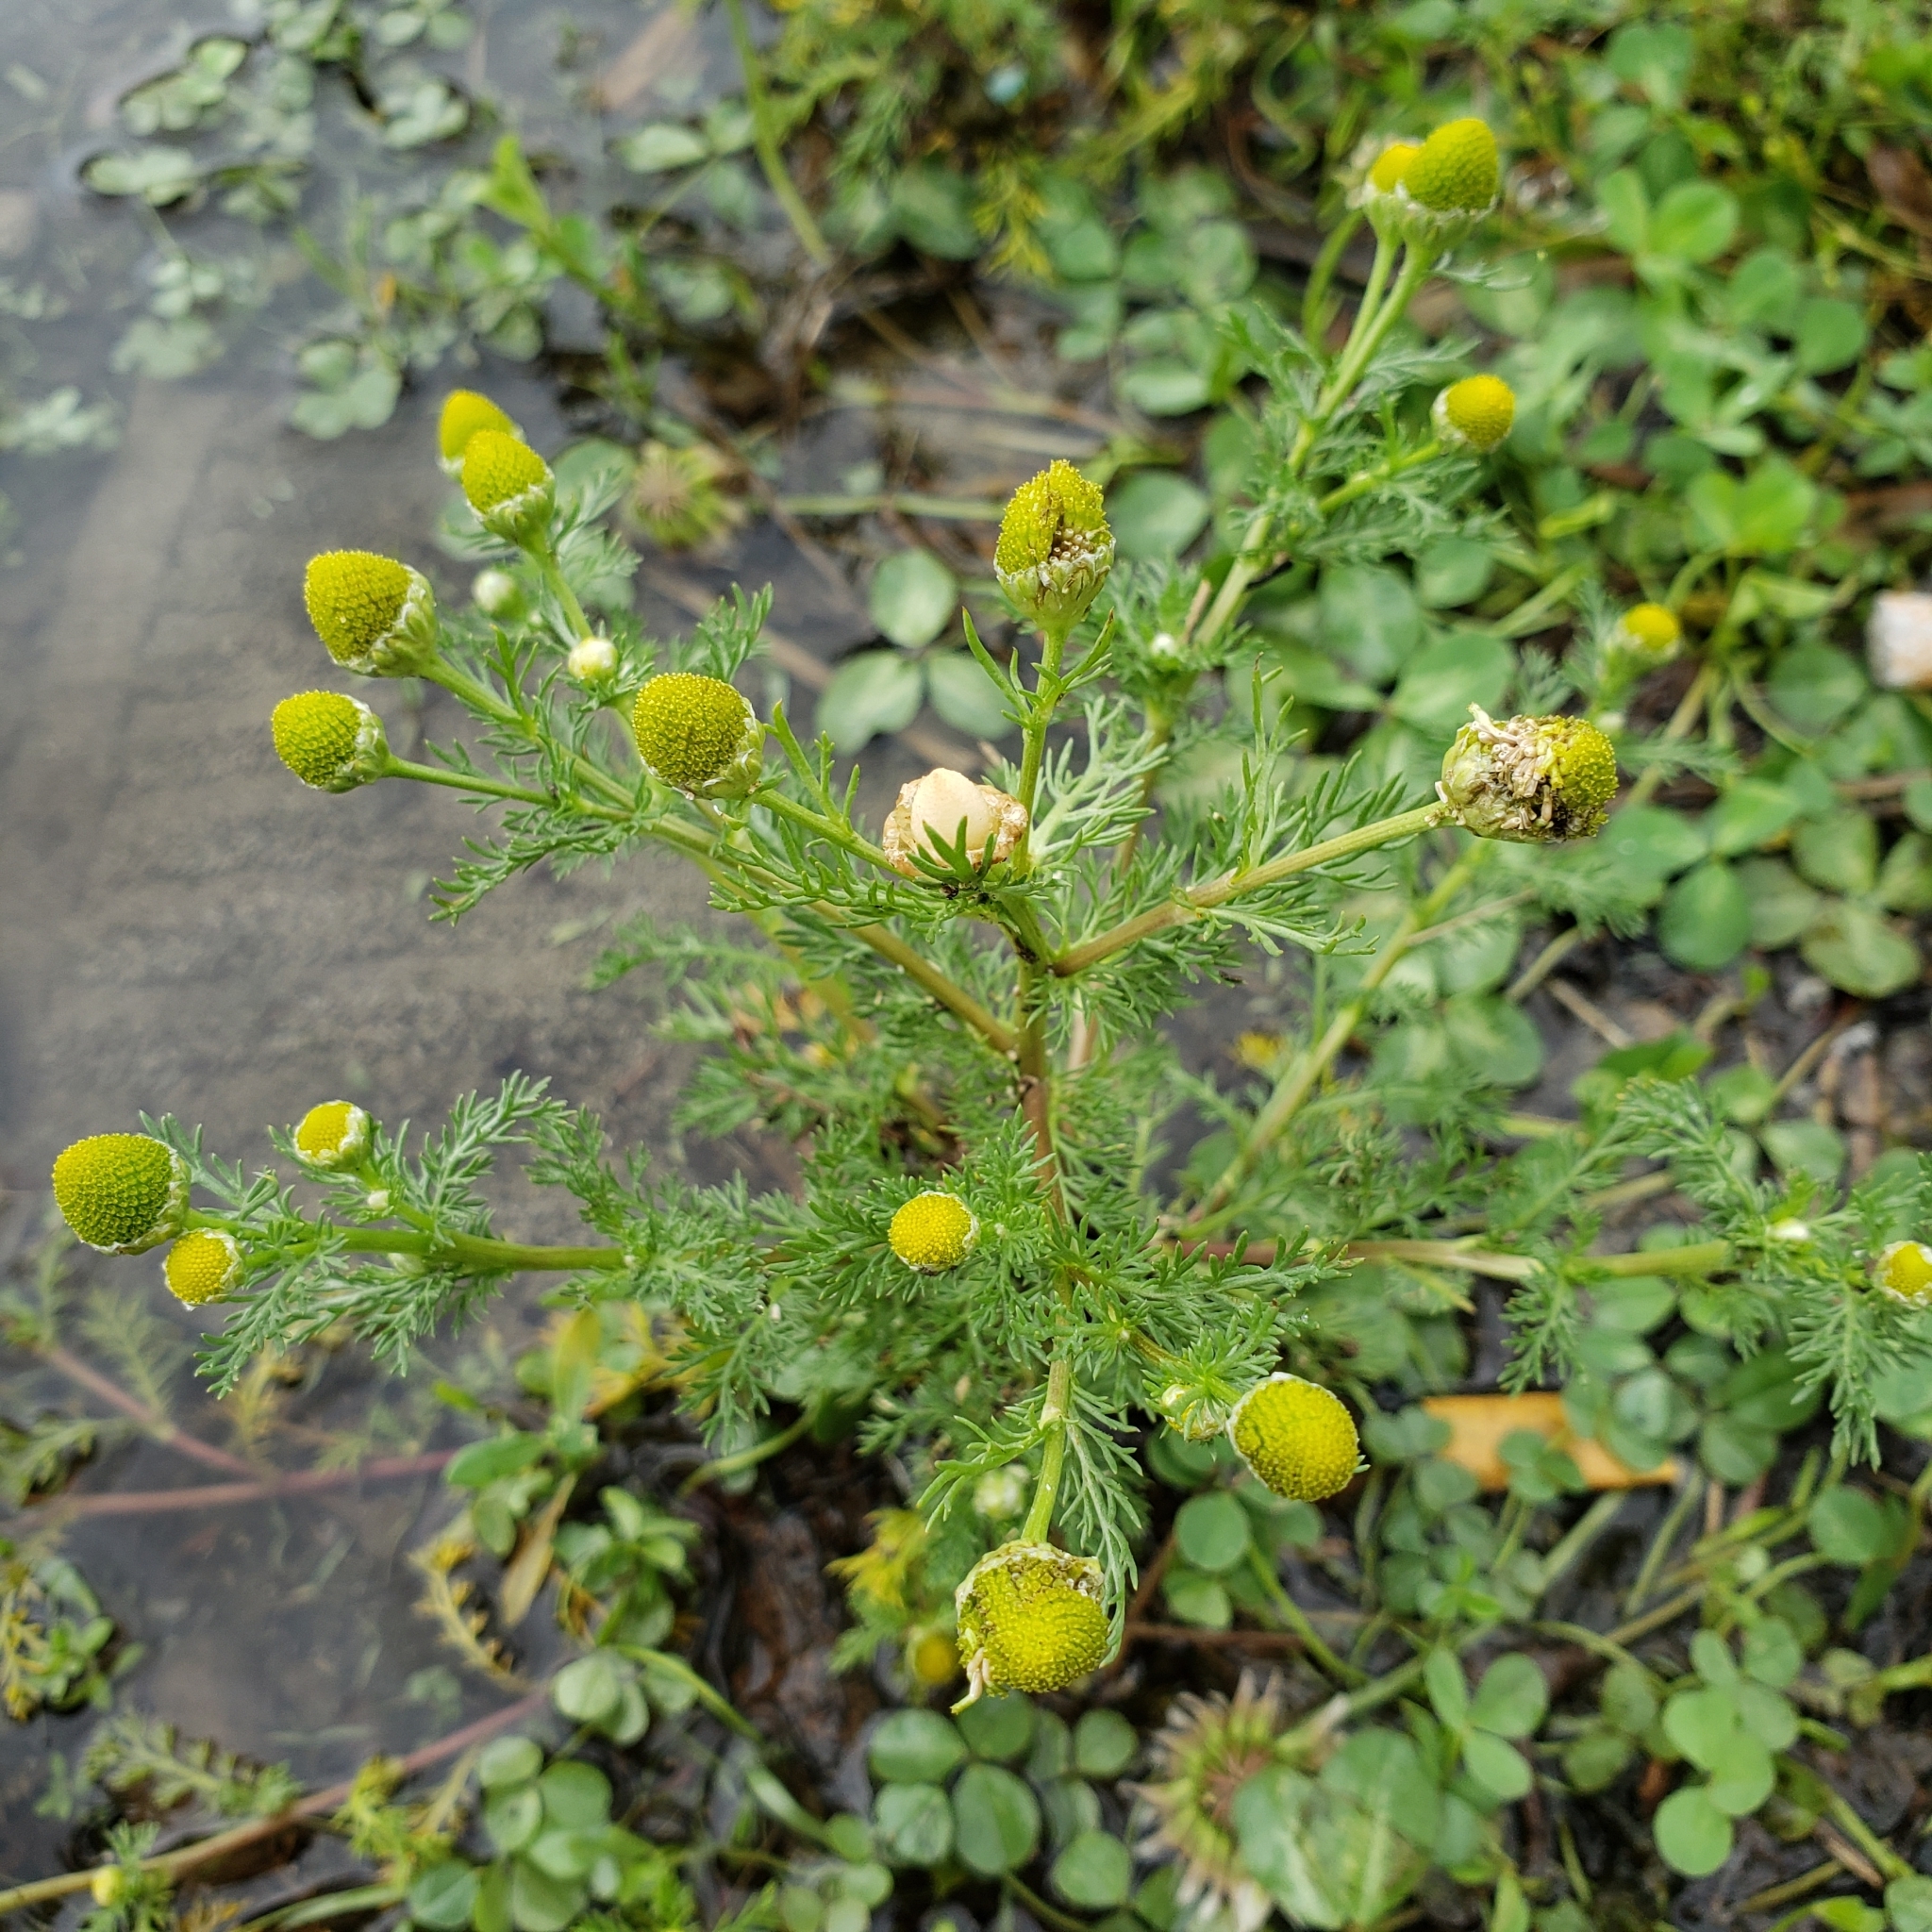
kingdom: Plantae
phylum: Tracheophyta
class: Magnoliopsida
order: Asterales
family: Asteraceae
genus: Matricaria
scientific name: Matricaria discoidea
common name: Disc mayweed
